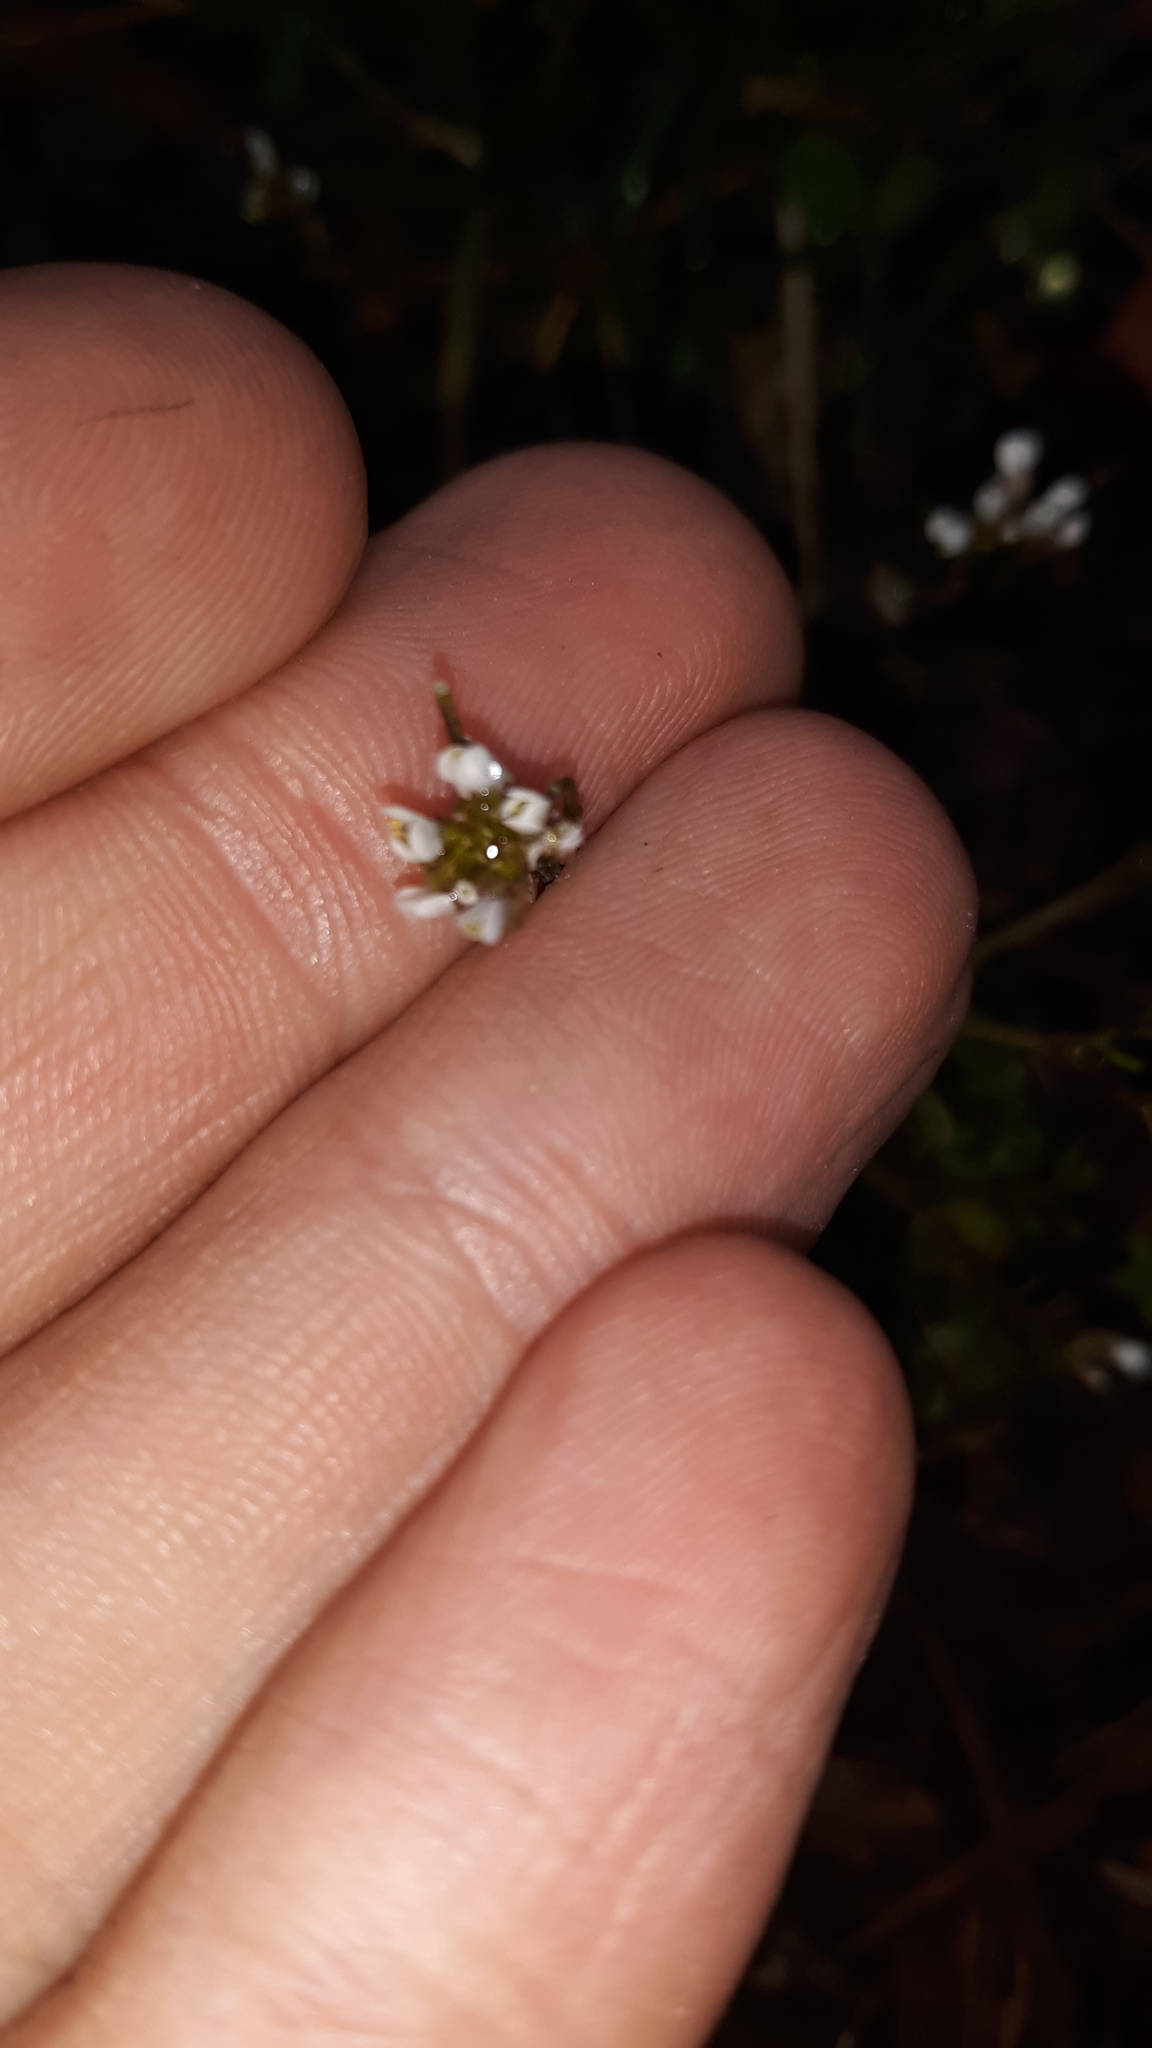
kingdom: Plantae
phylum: Tracheophyta
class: Magnoliopsida
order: Brassicales
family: Brassicaceae
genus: Cardamine
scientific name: Cardamine hirsuta
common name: Hairy bittercress
